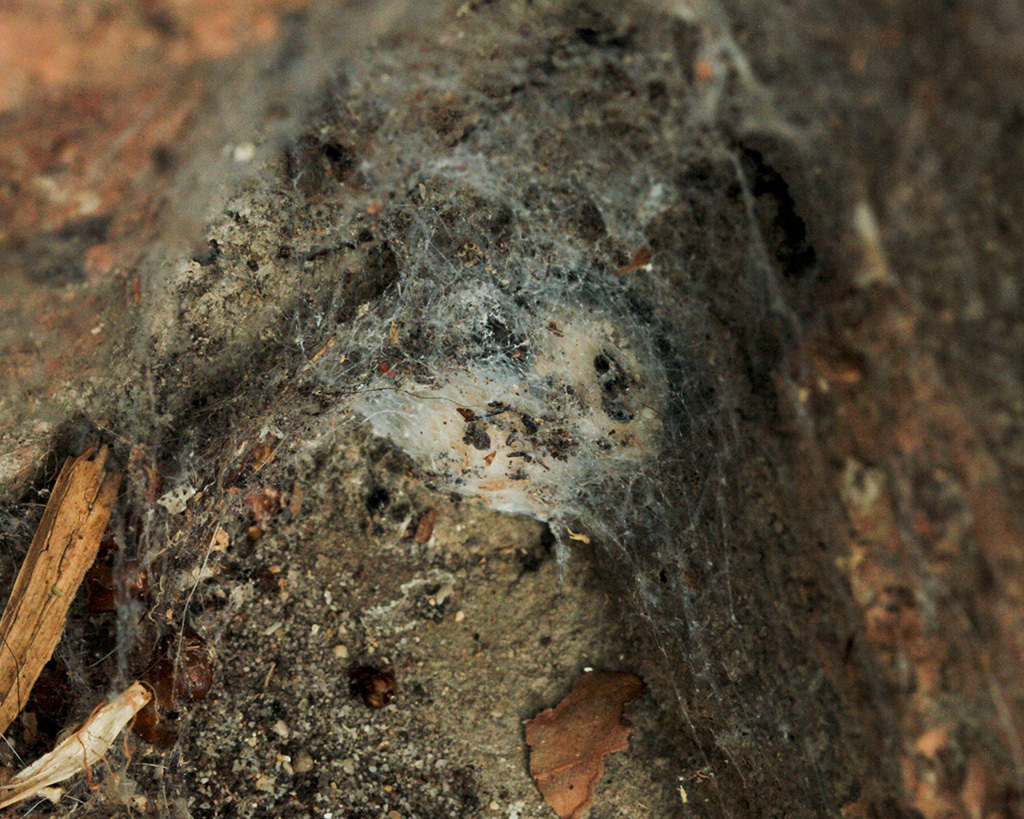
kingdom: Animalia
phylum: Arthropoda
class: Arachnida
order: Araneae
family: Phyxelididae
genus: Vidole
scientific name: Vidole capensis
